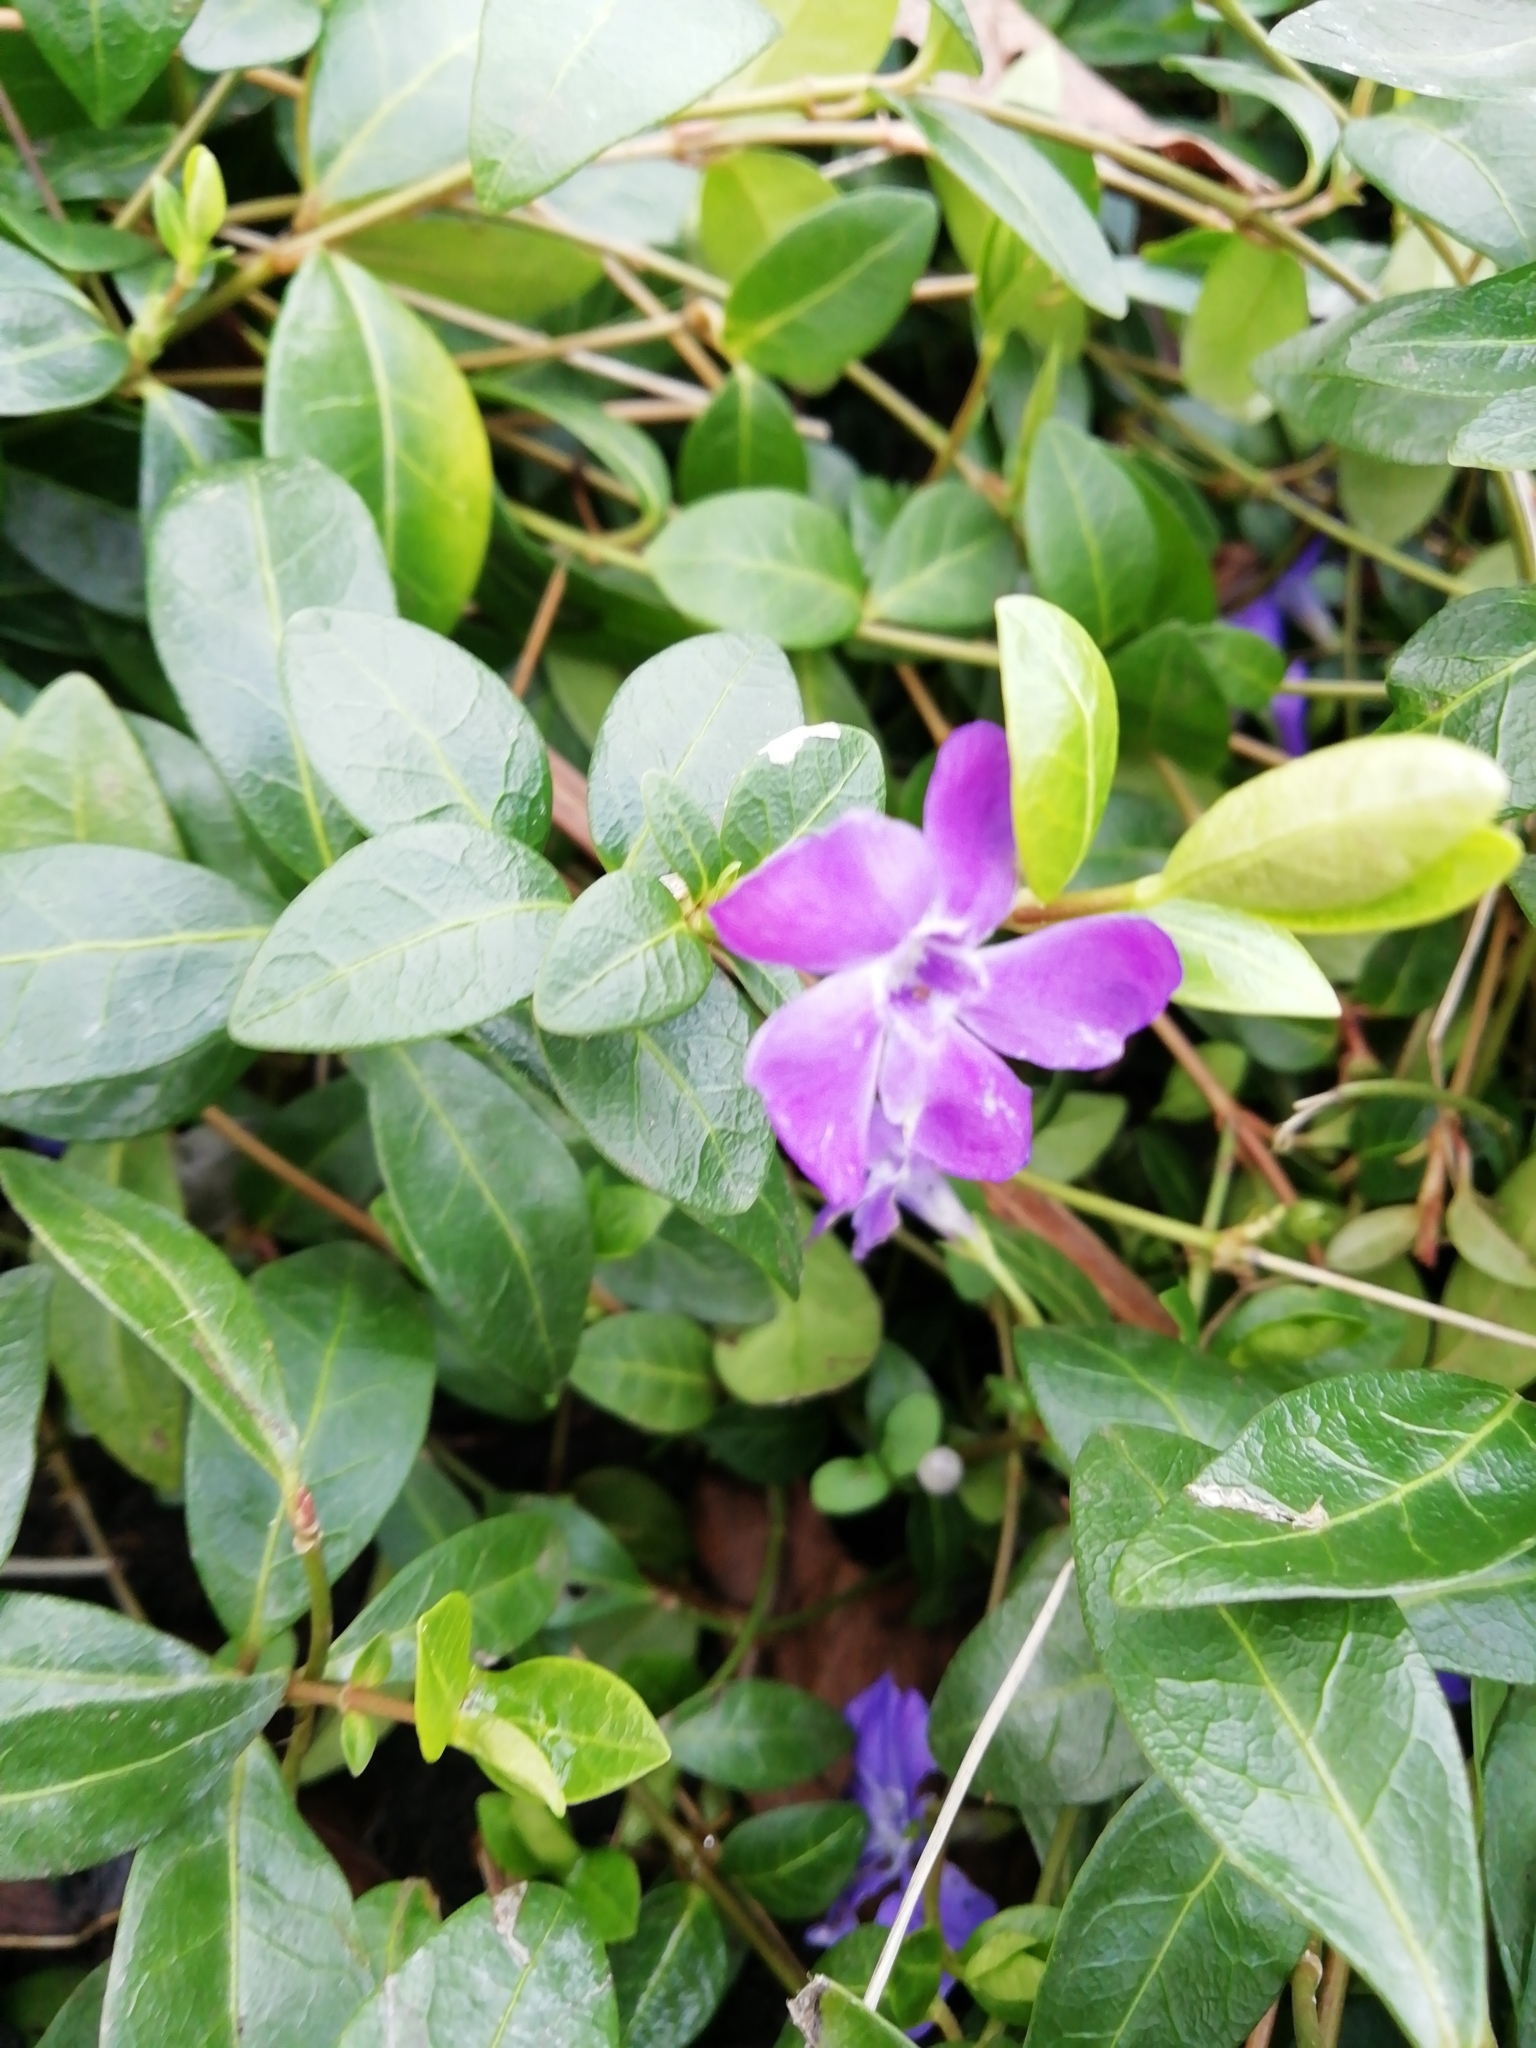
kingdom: Plantae
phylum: Tracheophyta
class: Magnoliopsida
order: Gentianales
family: Apocynaceae
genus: Vinca
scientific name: Vinca minor
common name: Lesser periwinkle
